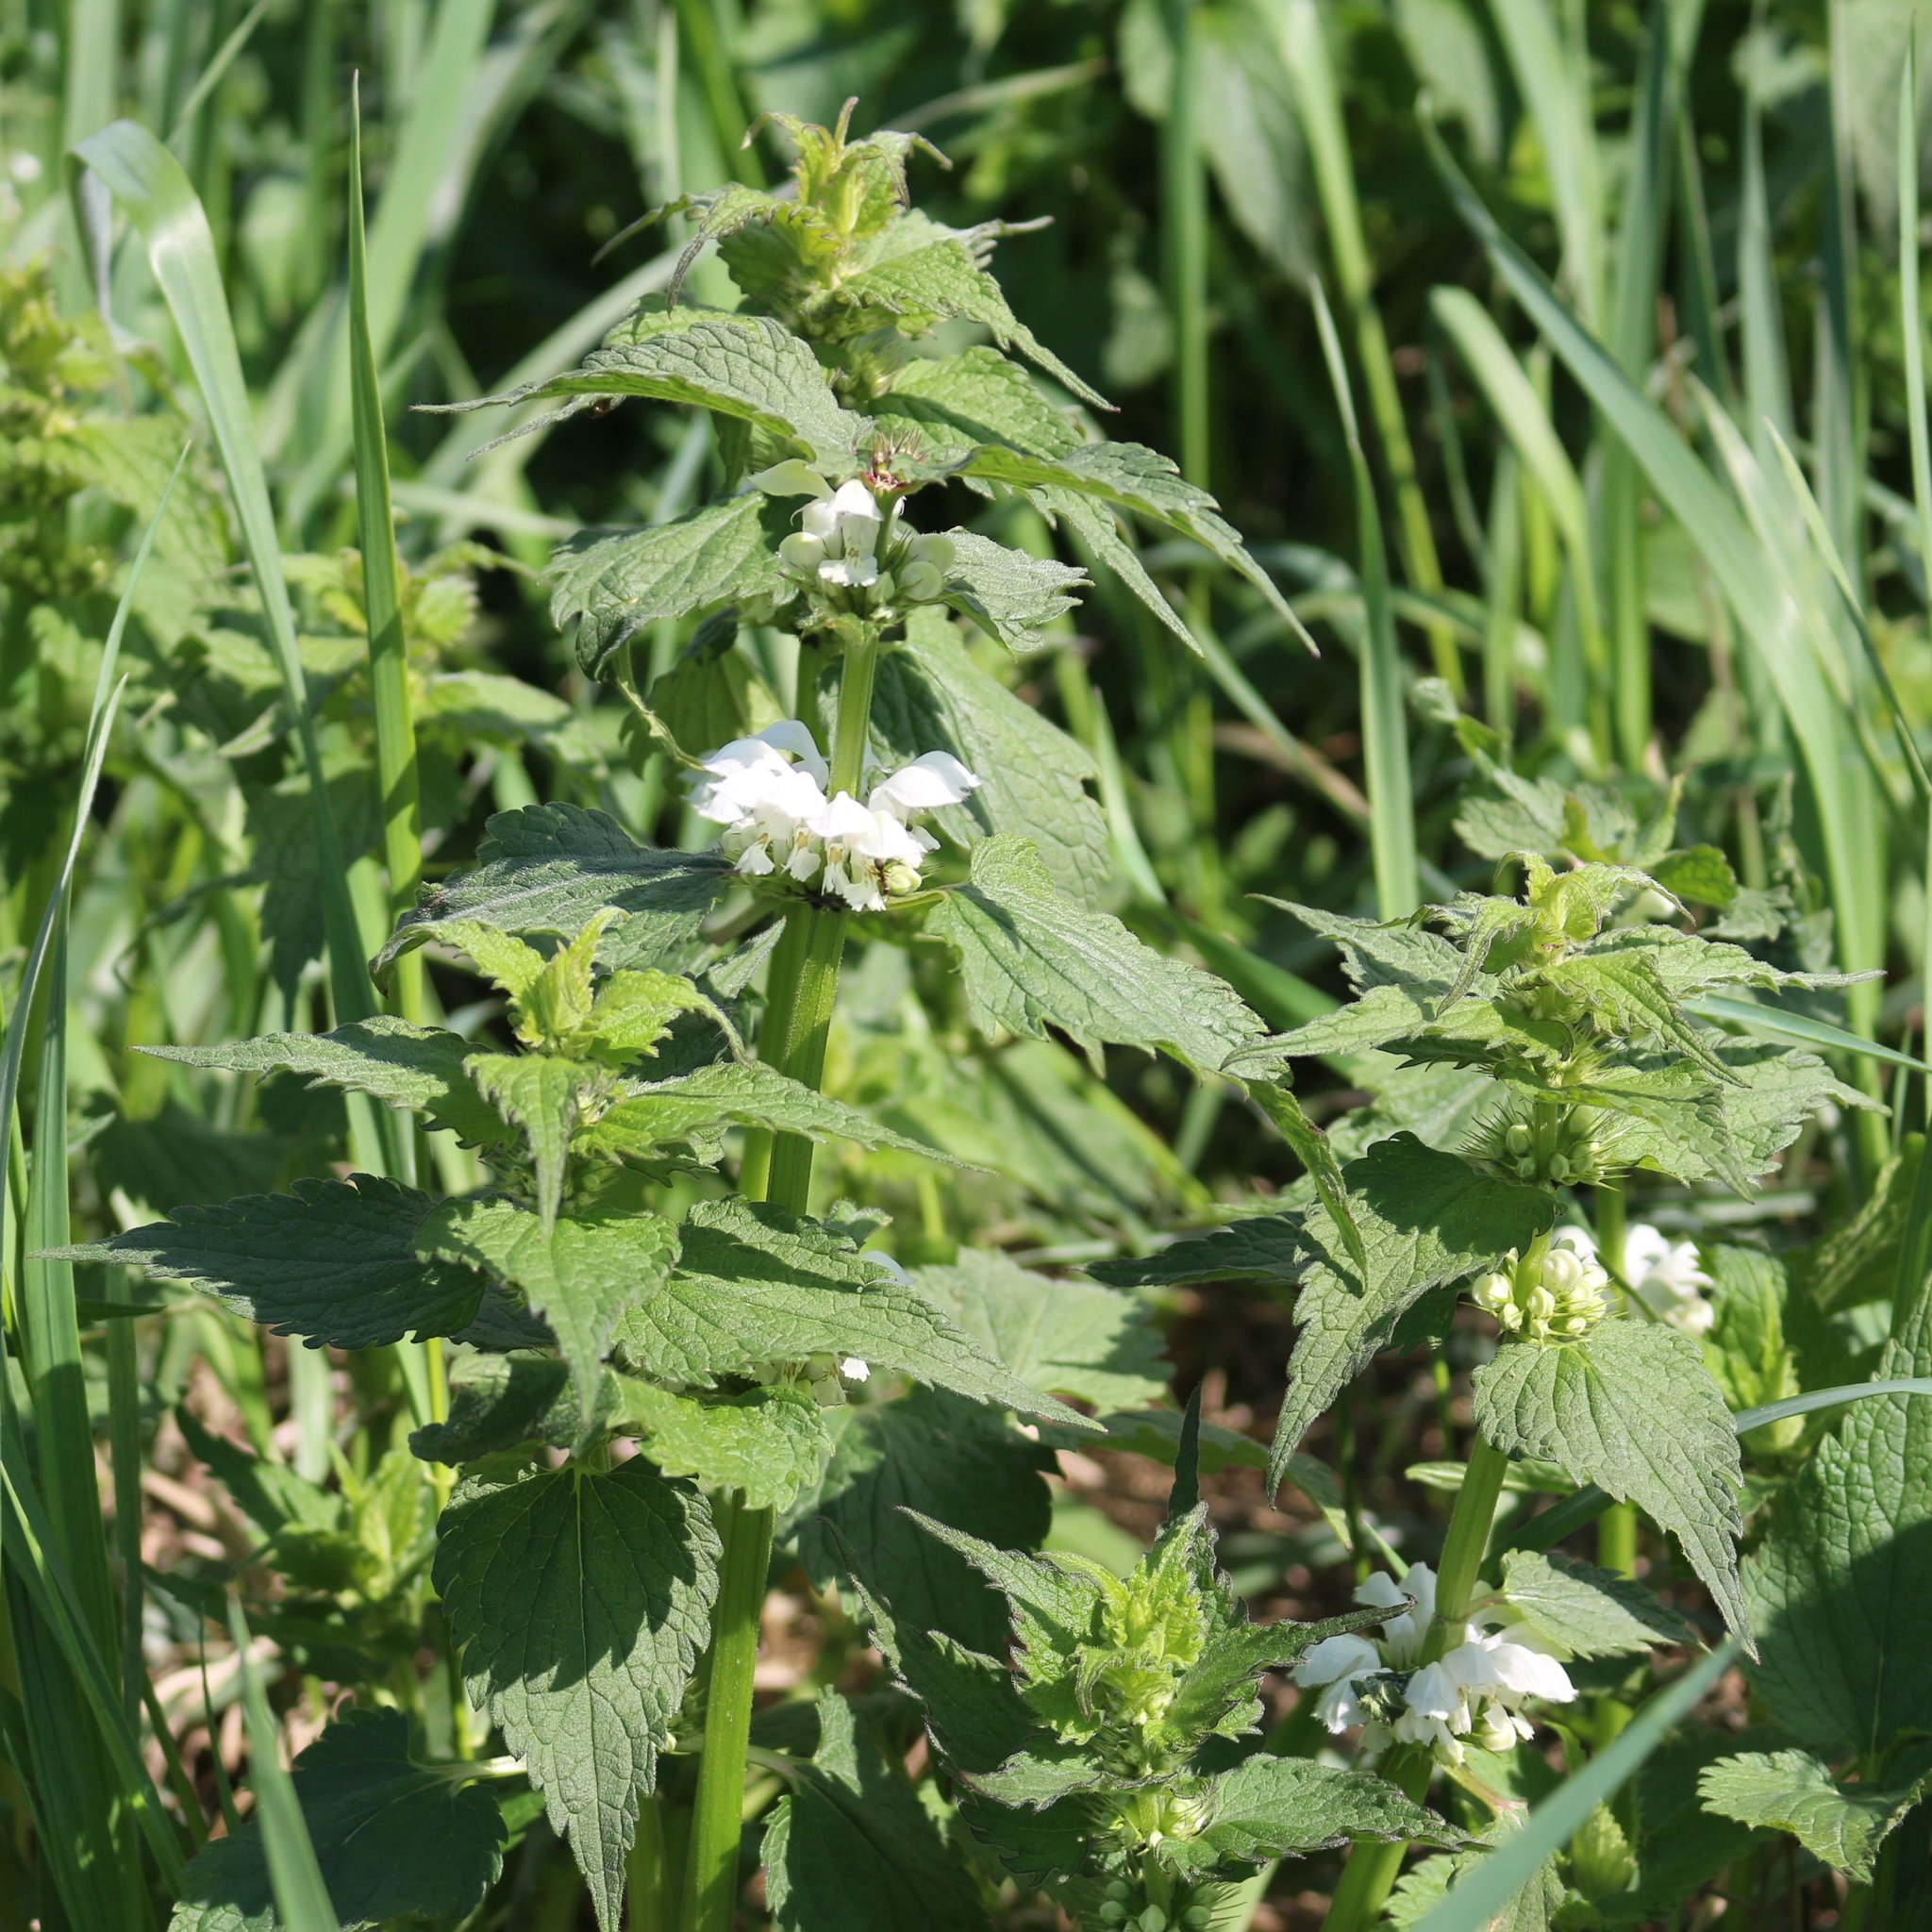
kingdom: Plantae
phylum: Tracheophyta
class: Magnoliopsida
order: Lamiales
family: Lamiaceae
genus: Lamium
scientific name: Lamium album
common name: White dead-nettle
